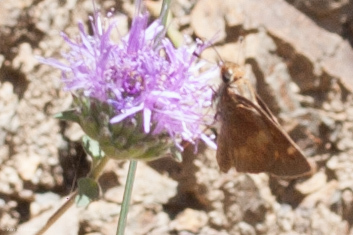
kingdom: Animalia
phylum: Arthropoda
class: Insecta
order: Lepidoptera
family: Hesperiidae
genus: Lon
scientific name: Lon melane
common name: Umber skipper
